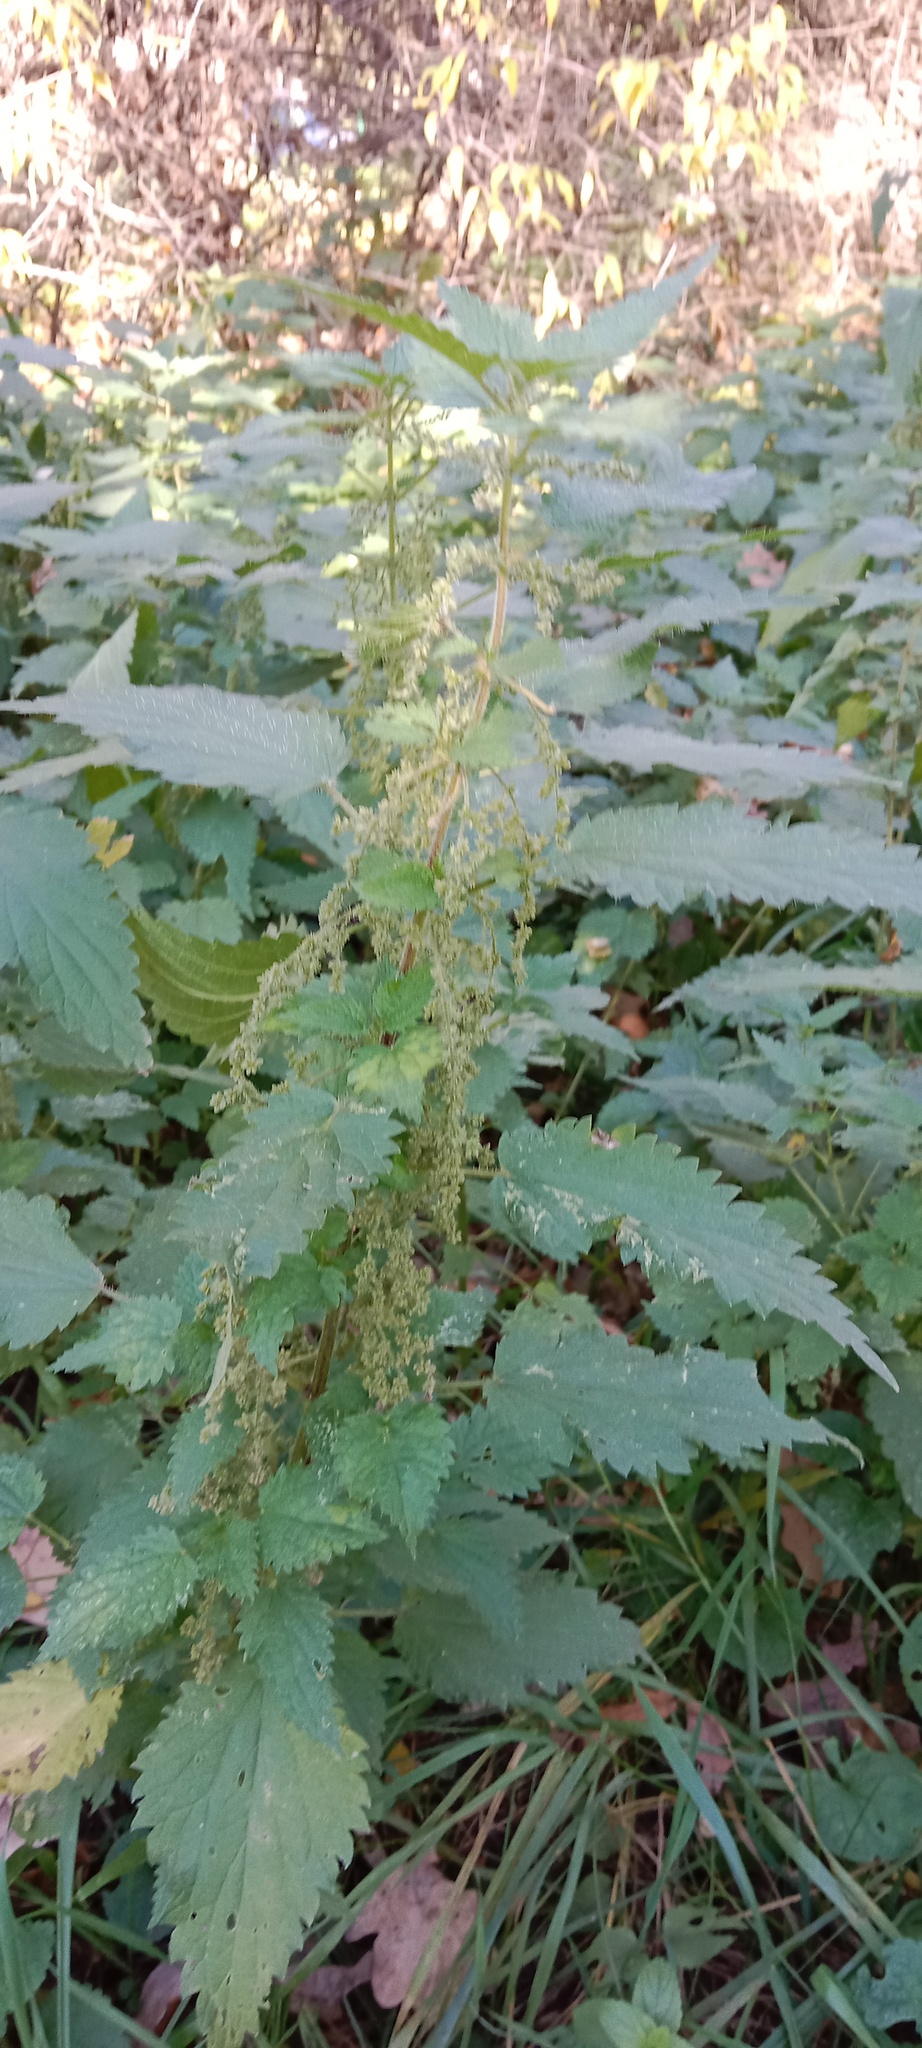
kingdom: Plantae
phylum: Tracheophyta
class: Magnoliopsida
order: Rosales
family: Urticaceae
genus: Urtica
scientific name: Urtica dioica
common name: Common nettle
